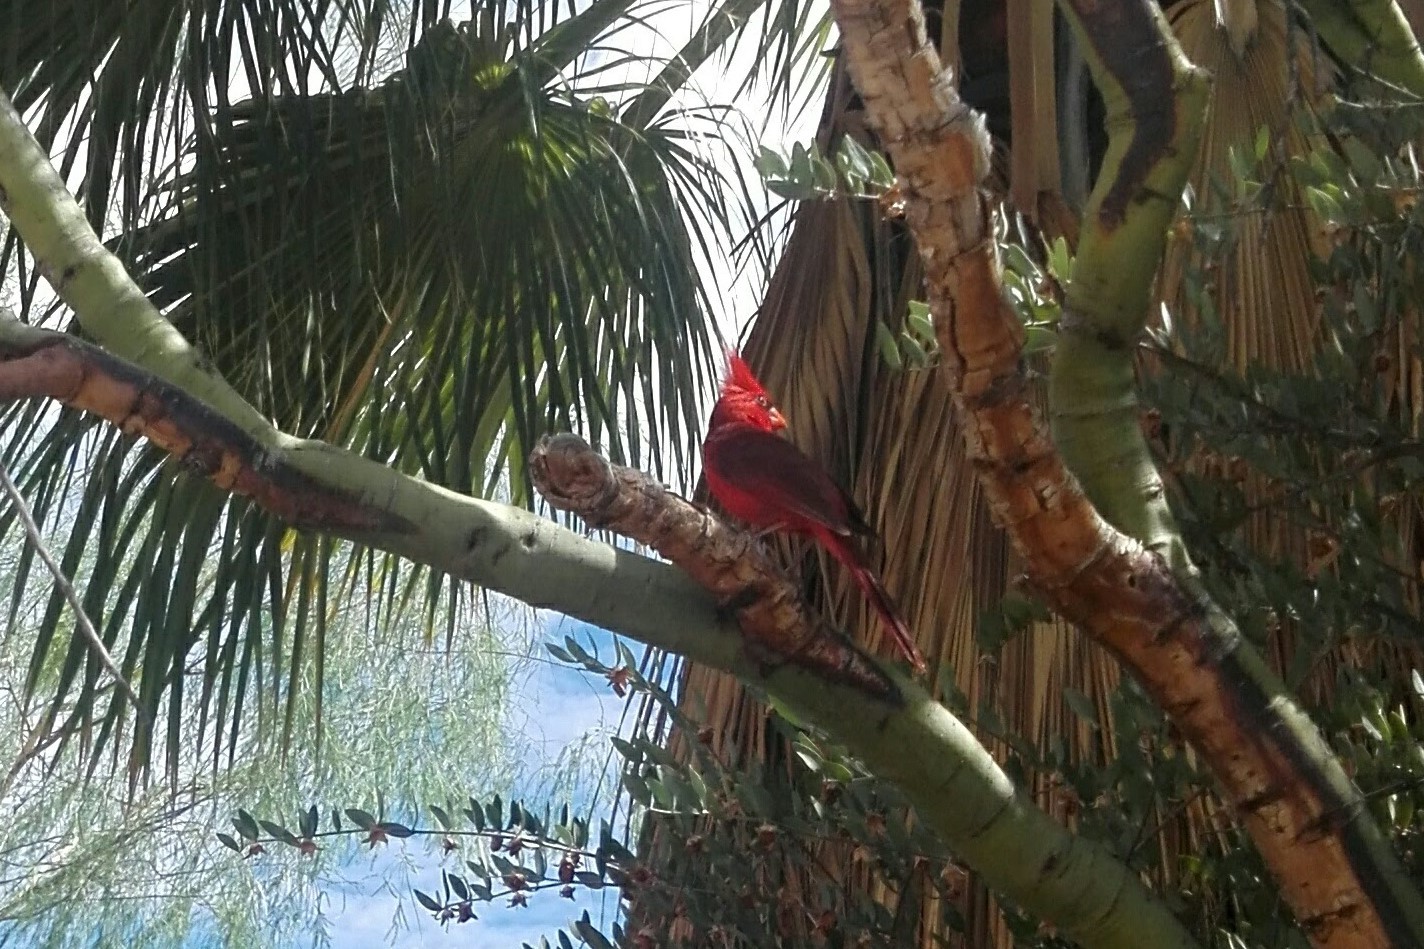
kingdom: Animalia
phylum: Chordata
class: Aves
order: Passeriformes
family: Cardinalidae
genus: Cardinalis
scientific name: Cardinalis cardinalis
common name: Northern cardinal
